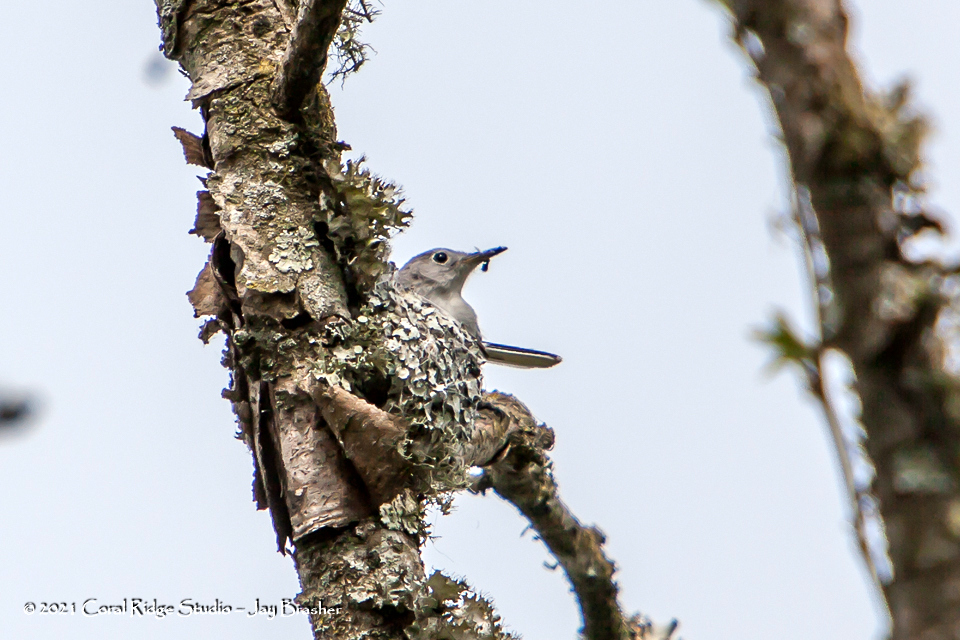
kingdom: Animalia
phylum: Chordata
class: Aves
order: Passeriformes
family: Polioptilidae
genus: Polioptila
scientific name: Polioptila caerulea
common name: Blue-gray gnatcatcher
